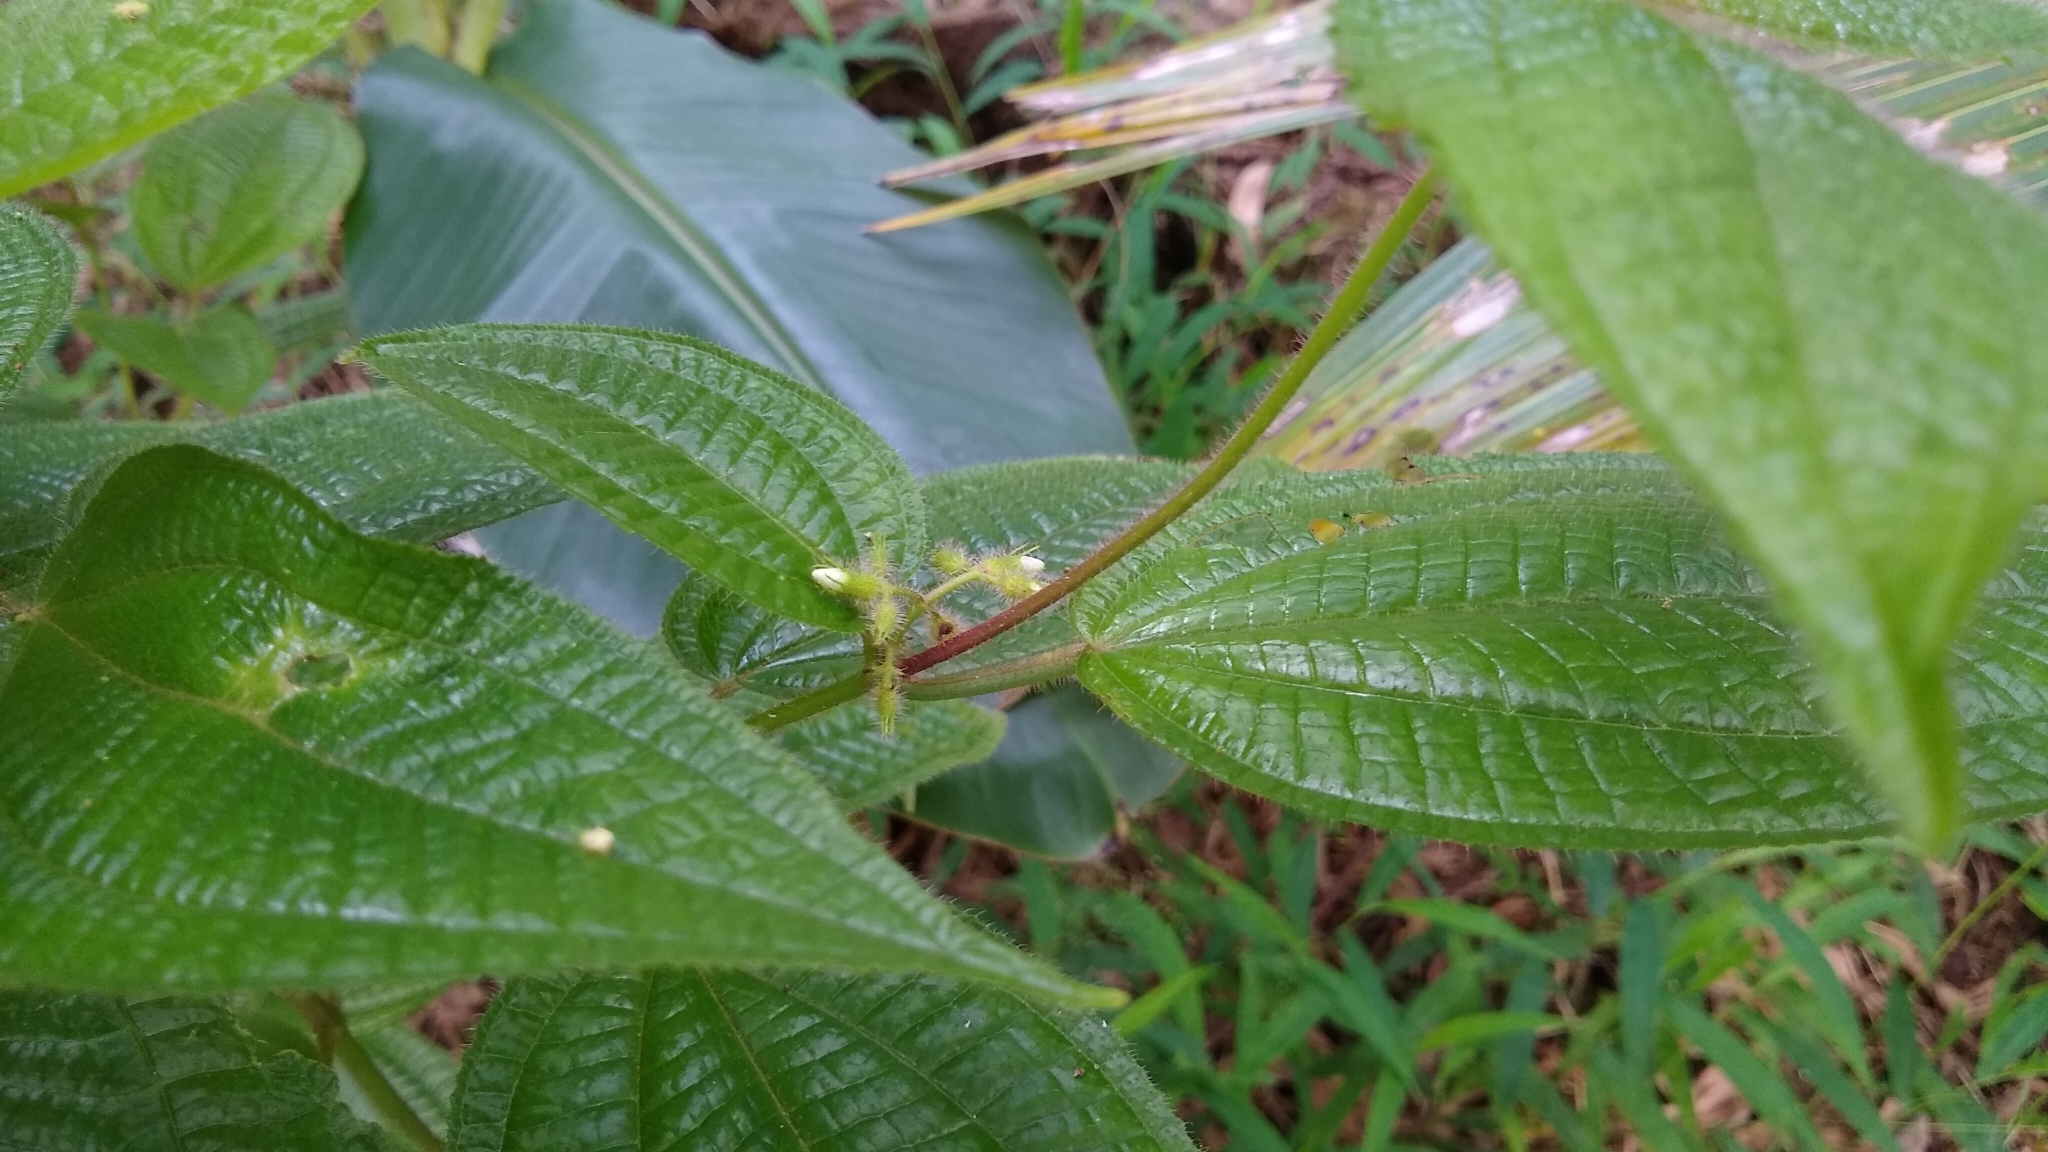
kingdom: Plantae
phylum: Tracheophyta
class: Magnoliopsida
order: Myrtales
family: Melastomataceae
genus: Miconia
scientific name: Miconia crenata
